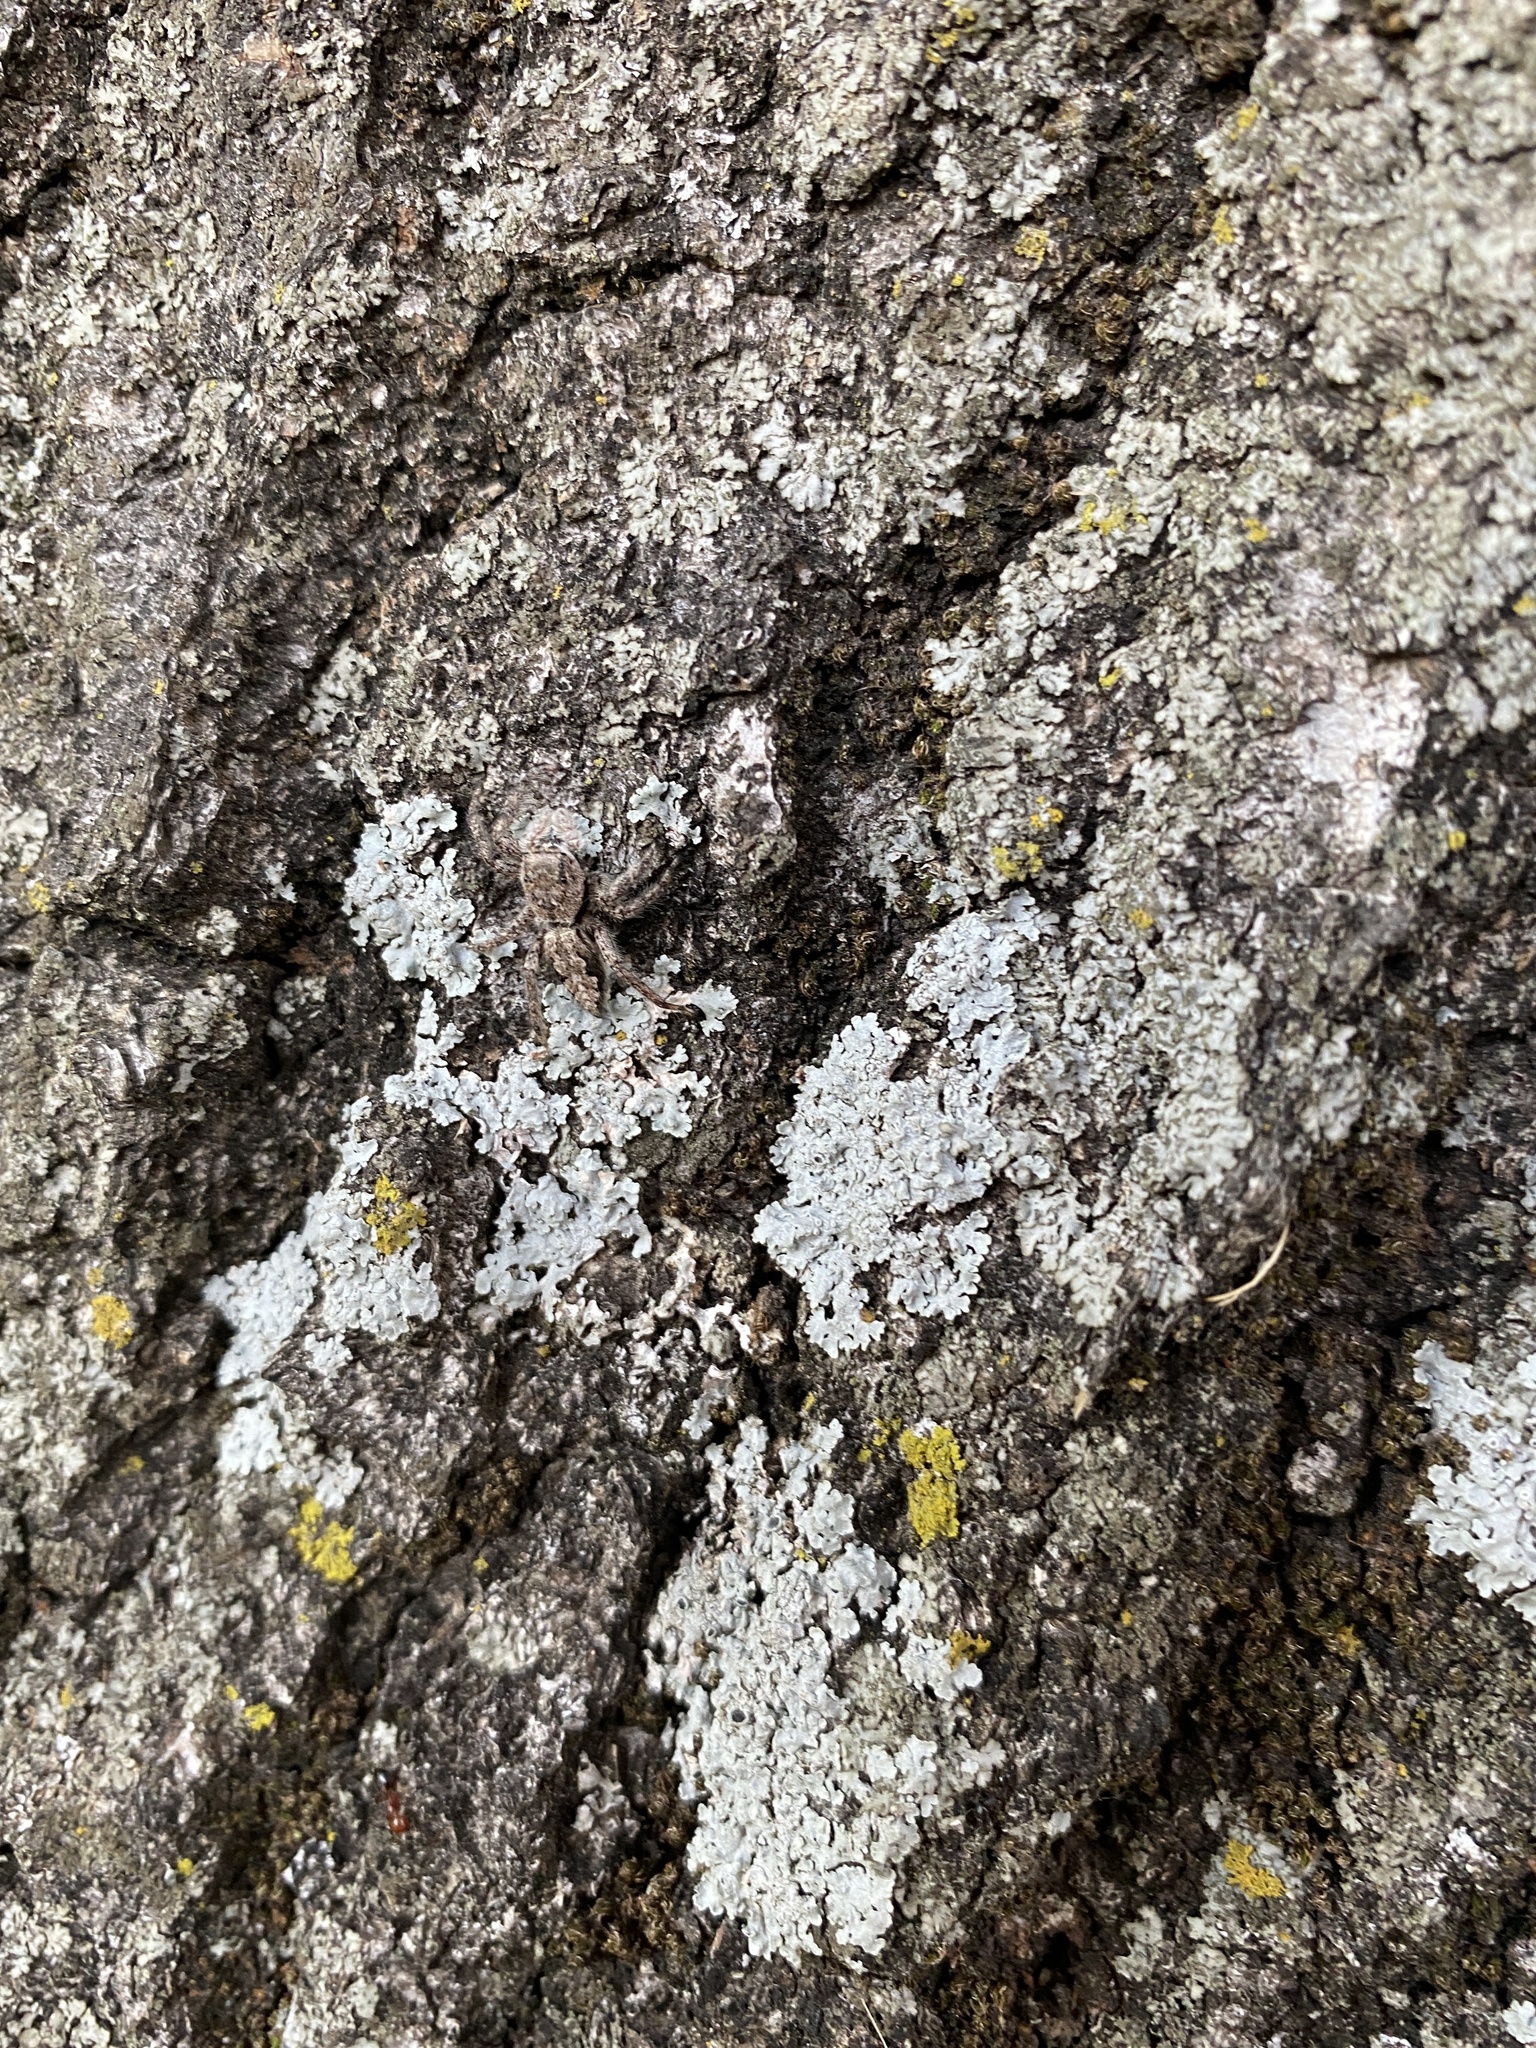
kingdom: Animalia
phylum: Arthropoda
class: Arachnida
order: Araneae
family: Salticidae
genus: Platycryptus
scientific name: Platycryptus undatus
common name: Tan jumping spider
